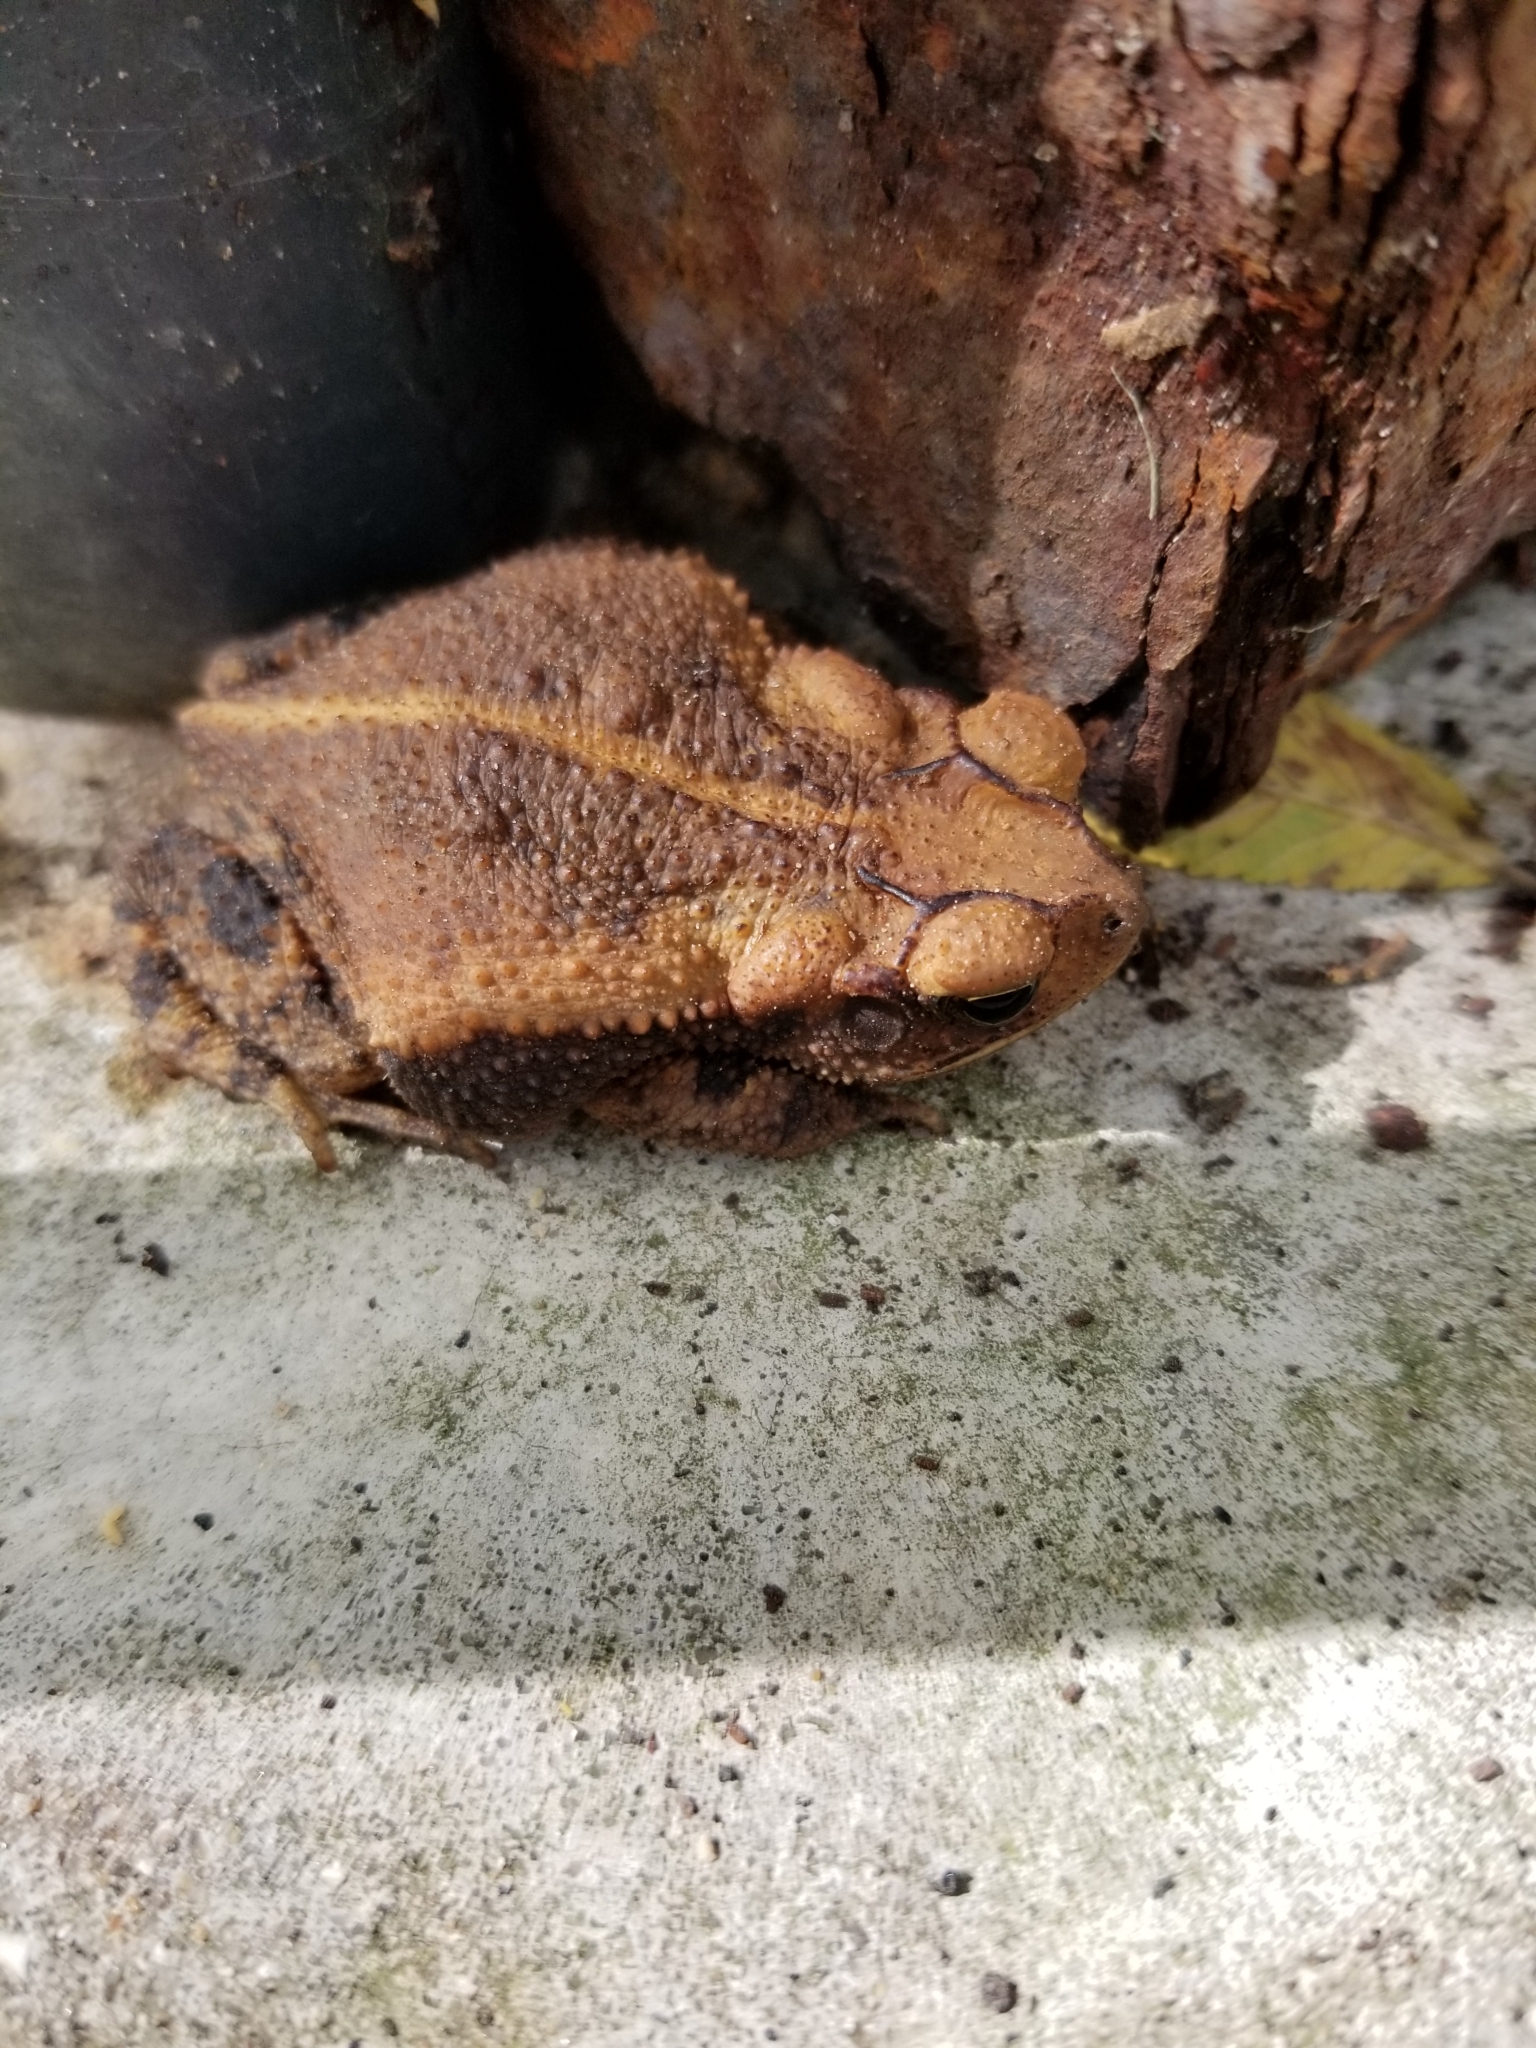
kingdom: Animalia
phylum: Chordata
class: Amphibia
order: Anura
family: Bufonidae
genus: Incilius
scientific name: Incilius nebulifer
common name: Gulf coast toad
